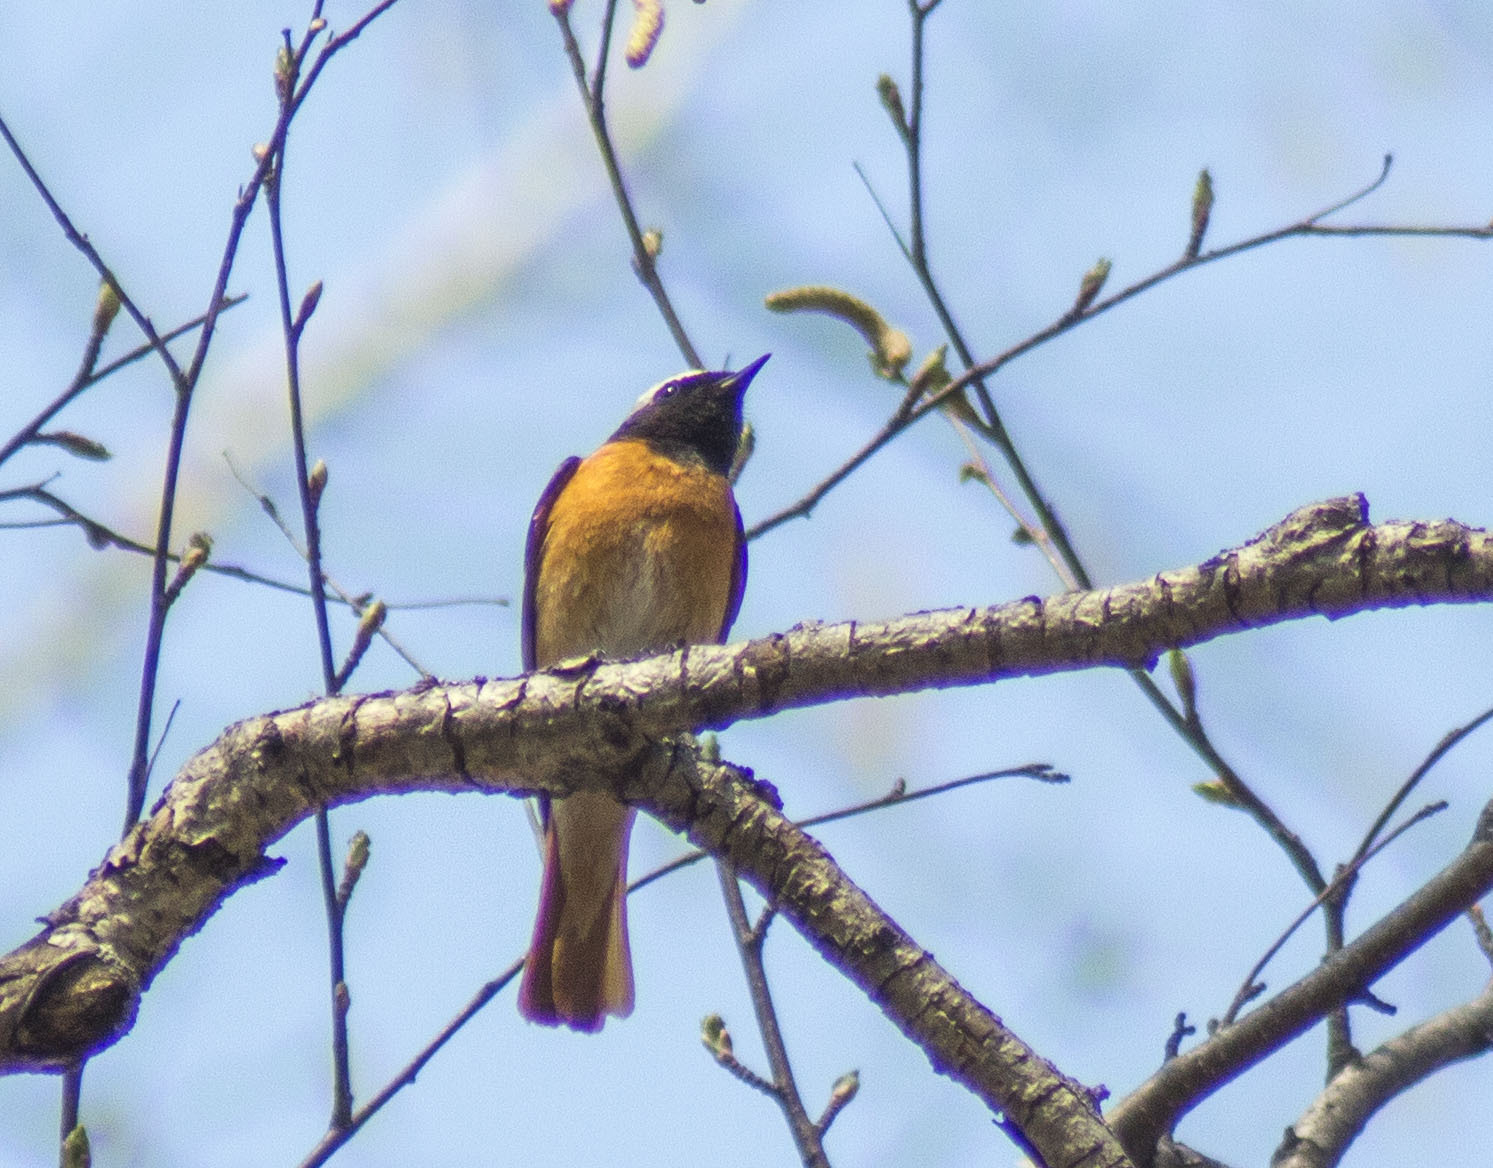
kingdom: Animalia
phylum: Chordata
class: Aves
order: Passeriformes
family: Muscicapidae
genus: Phoenicurus
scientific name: Phoenicurus phoenicurus
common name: Common redstart
